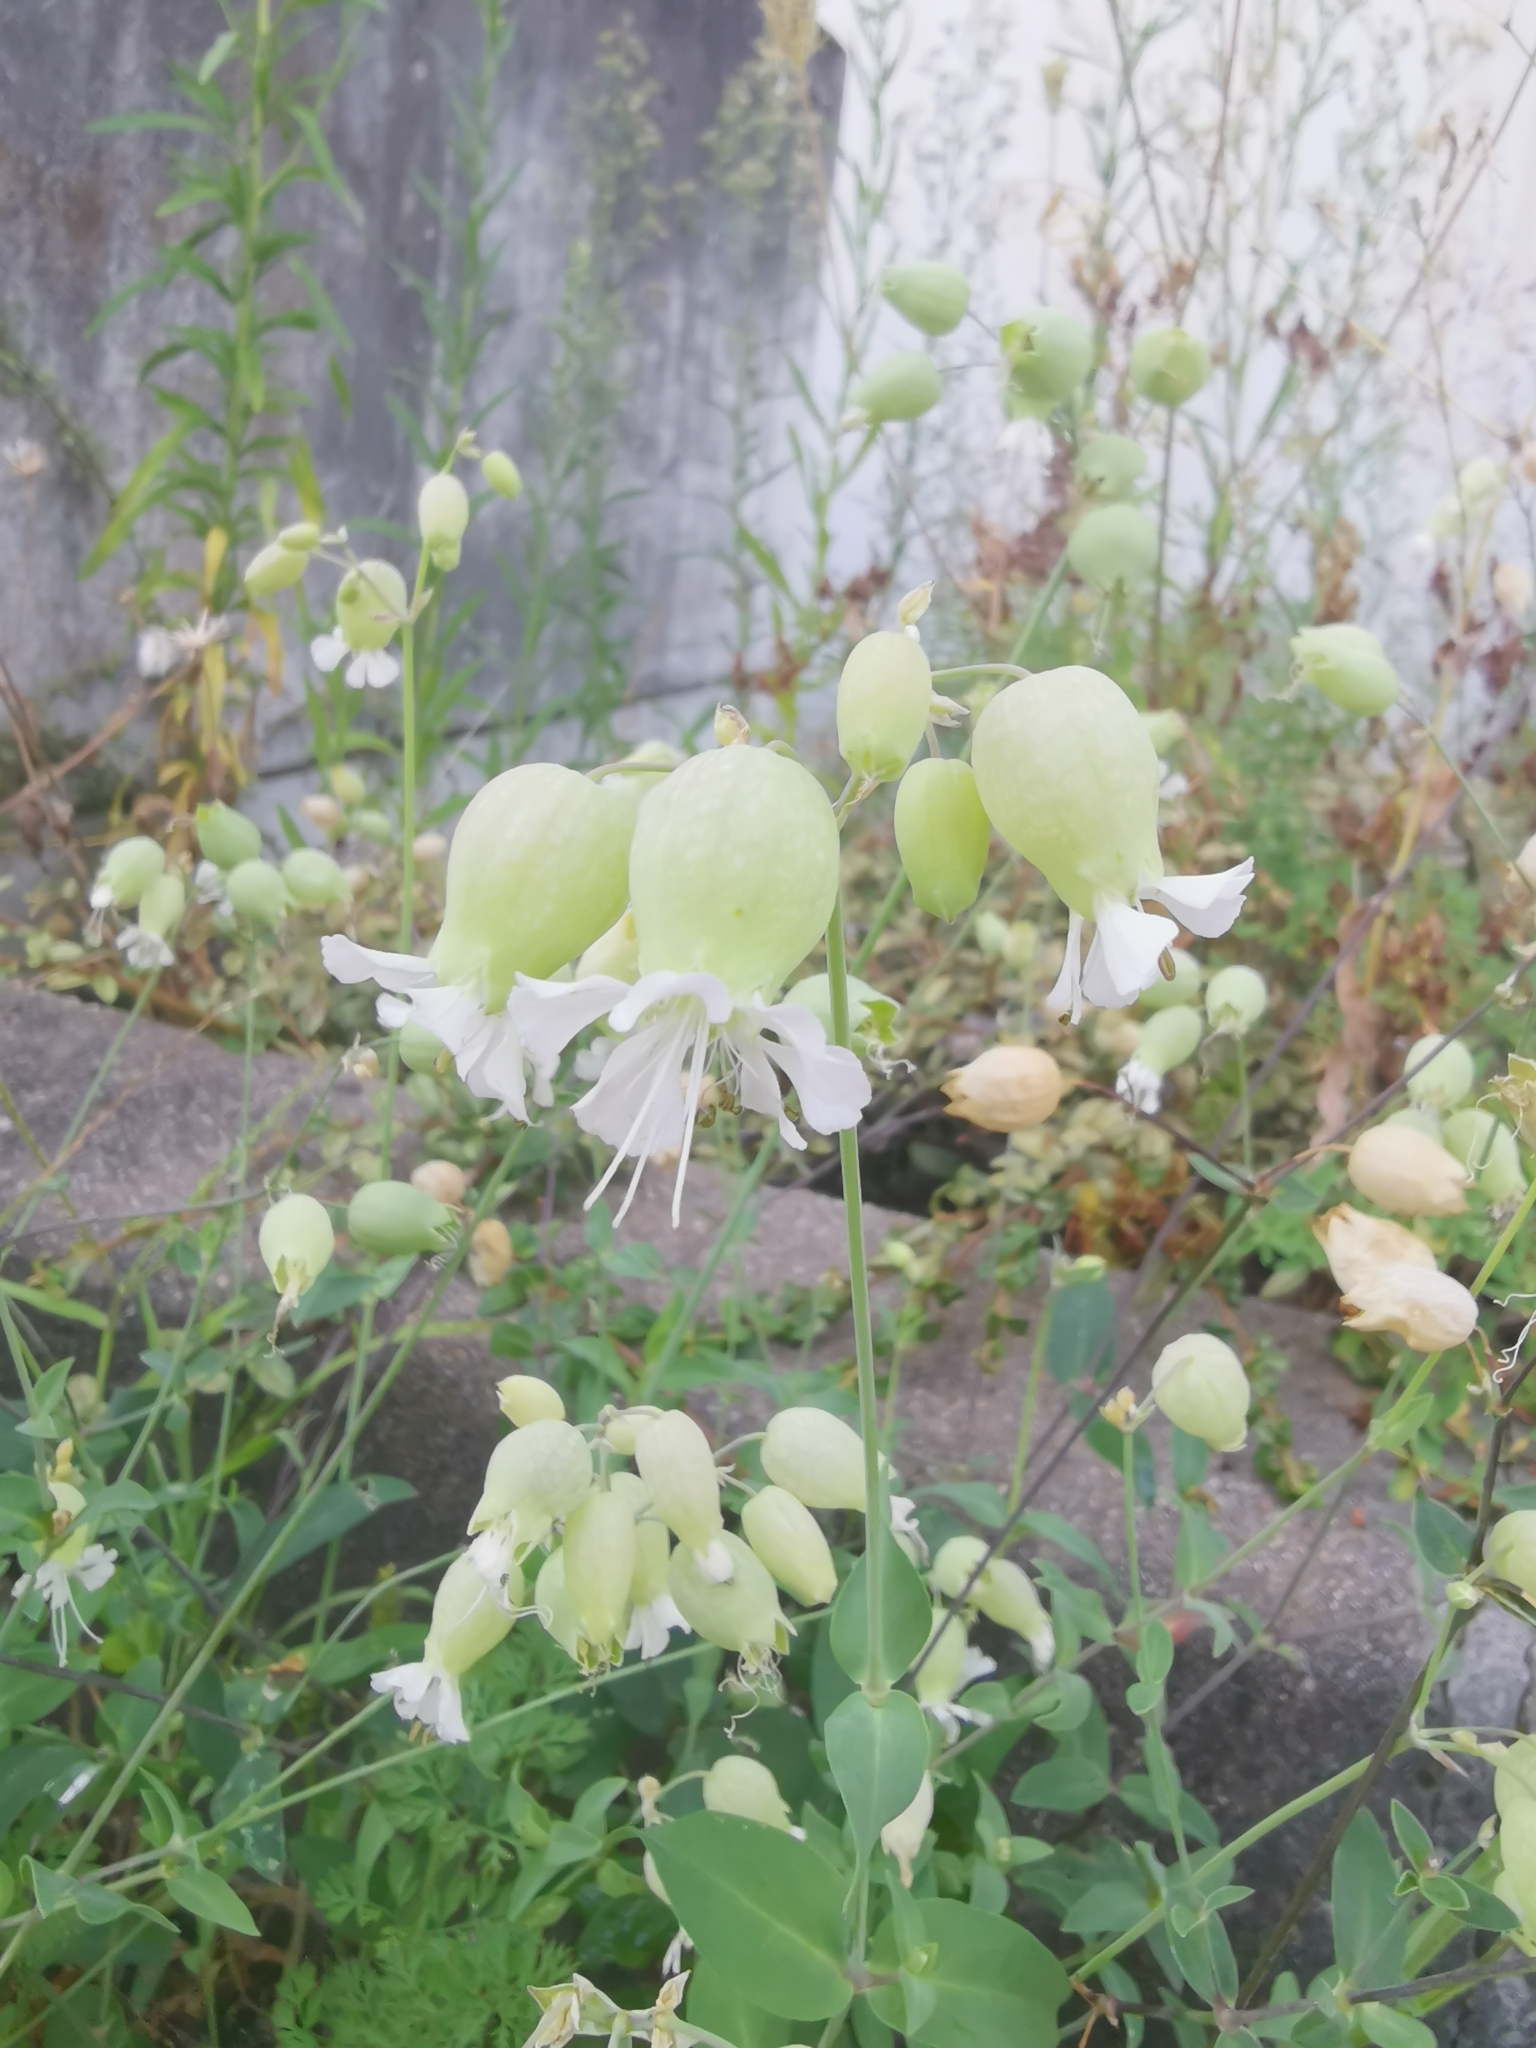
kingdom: Plantae
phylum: Tracheophyta
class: Magnoliopsida
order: Caryophyllales
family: Caryophyllaceae
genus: Silene
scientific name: Silene vulgaris
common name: Bladder campion
